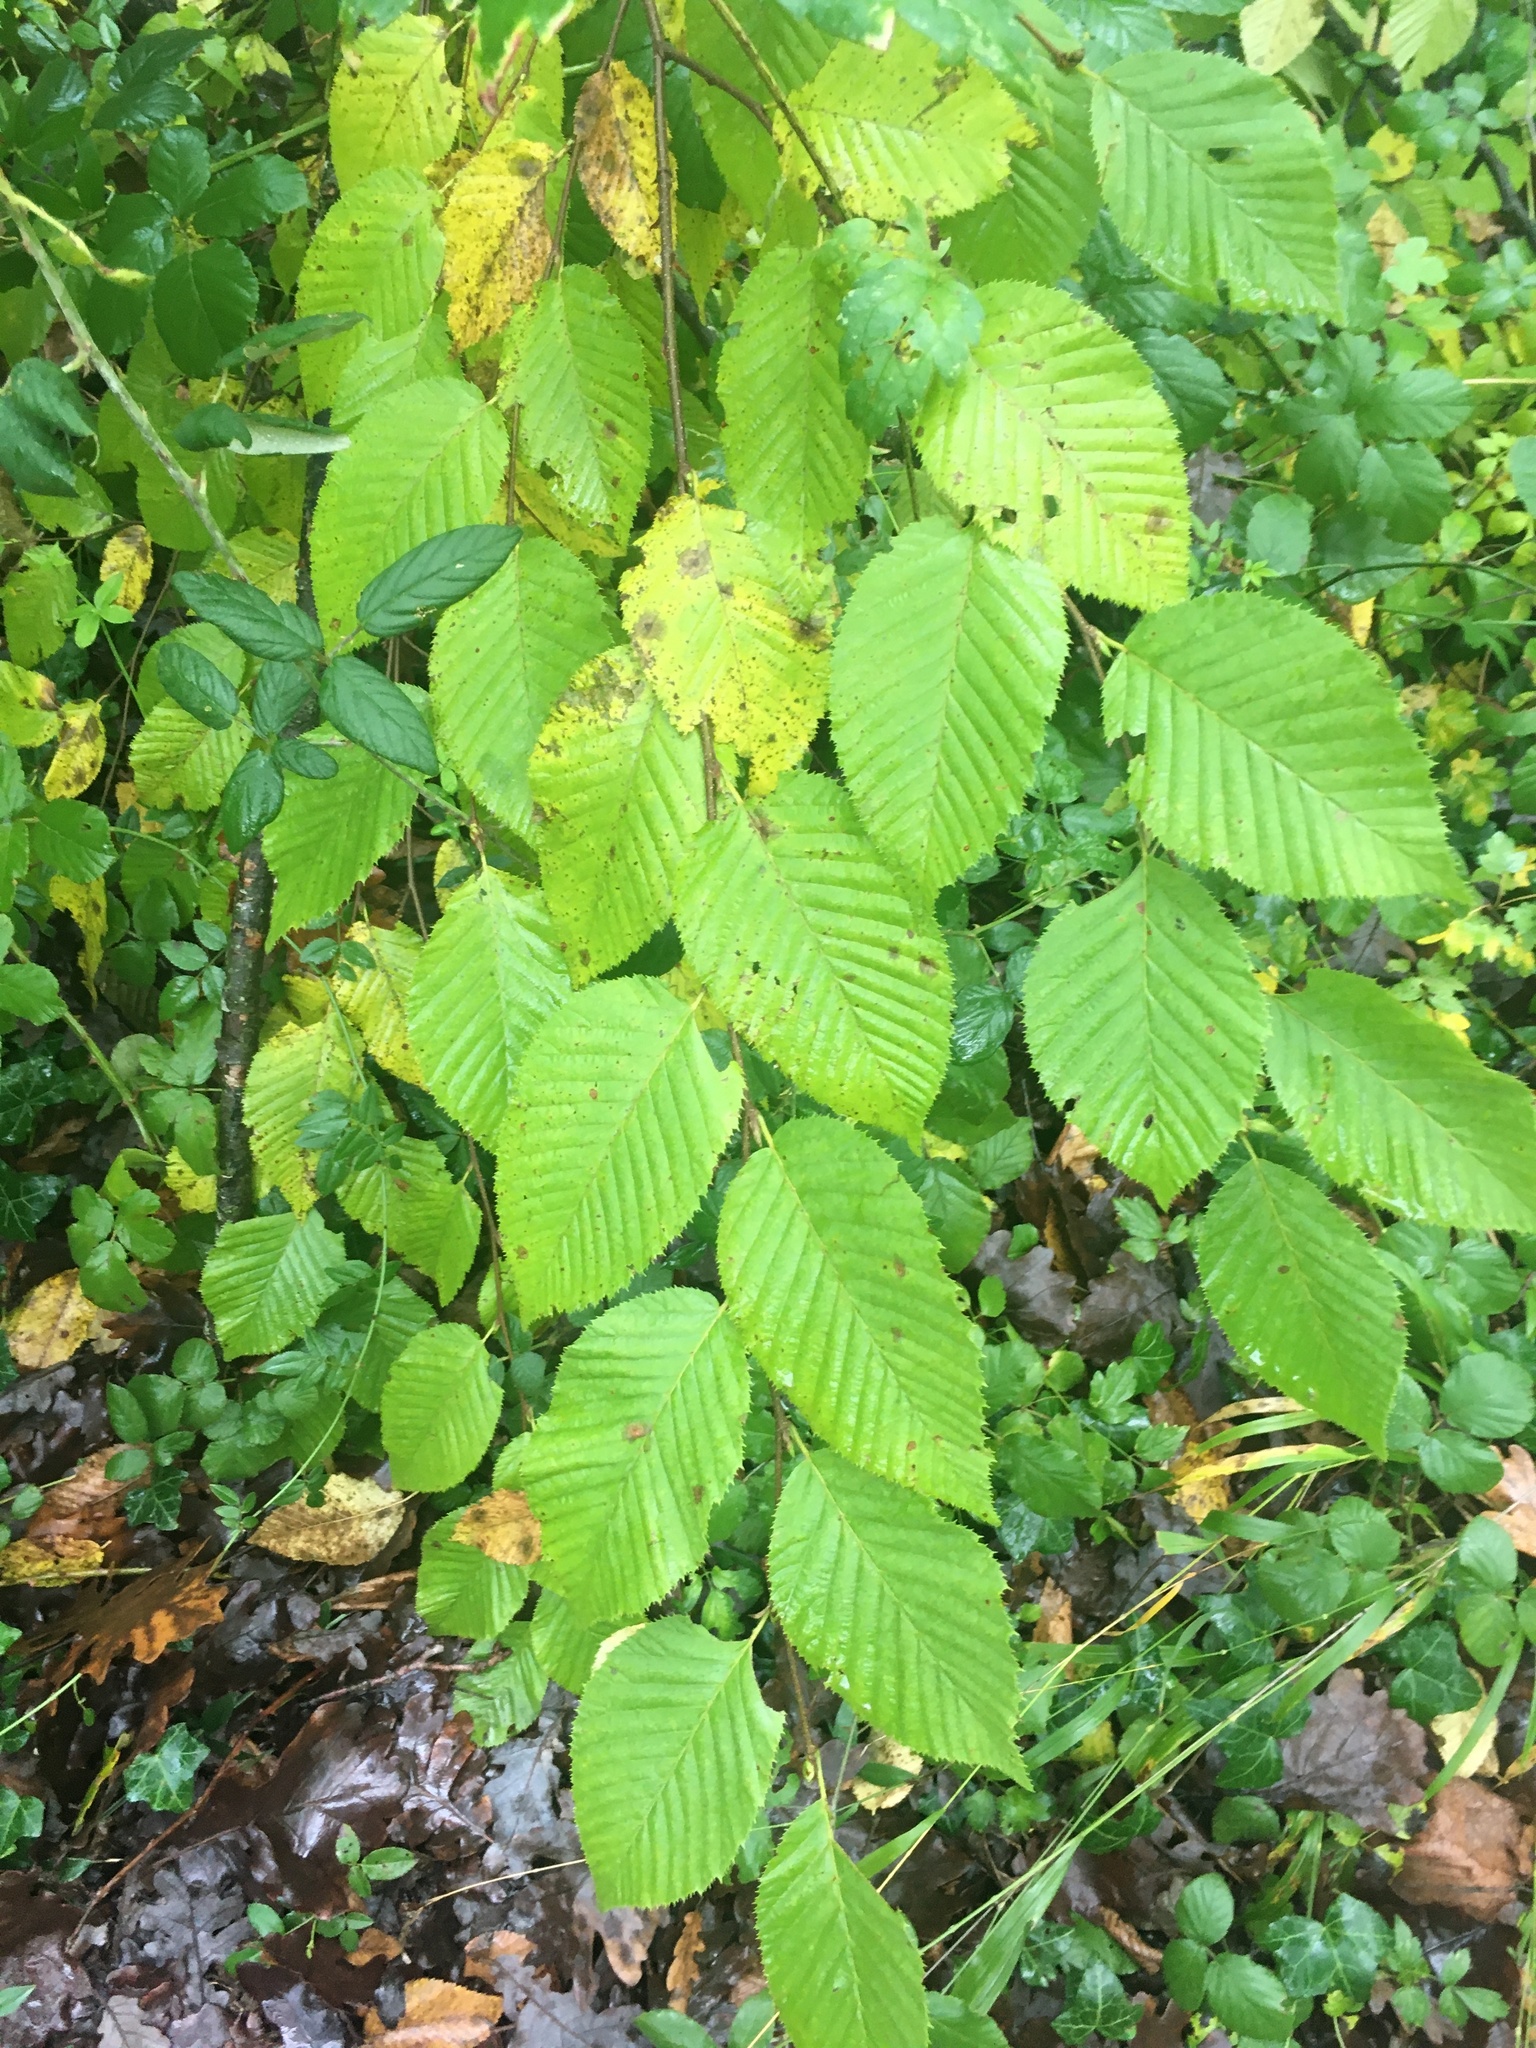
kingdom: Plantae
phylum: Tracheophyta
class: Magnoliopsida
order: Fagales
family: Betulaceae
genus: Carpinus
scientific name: Carpinus betulus
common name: Hornbeam
